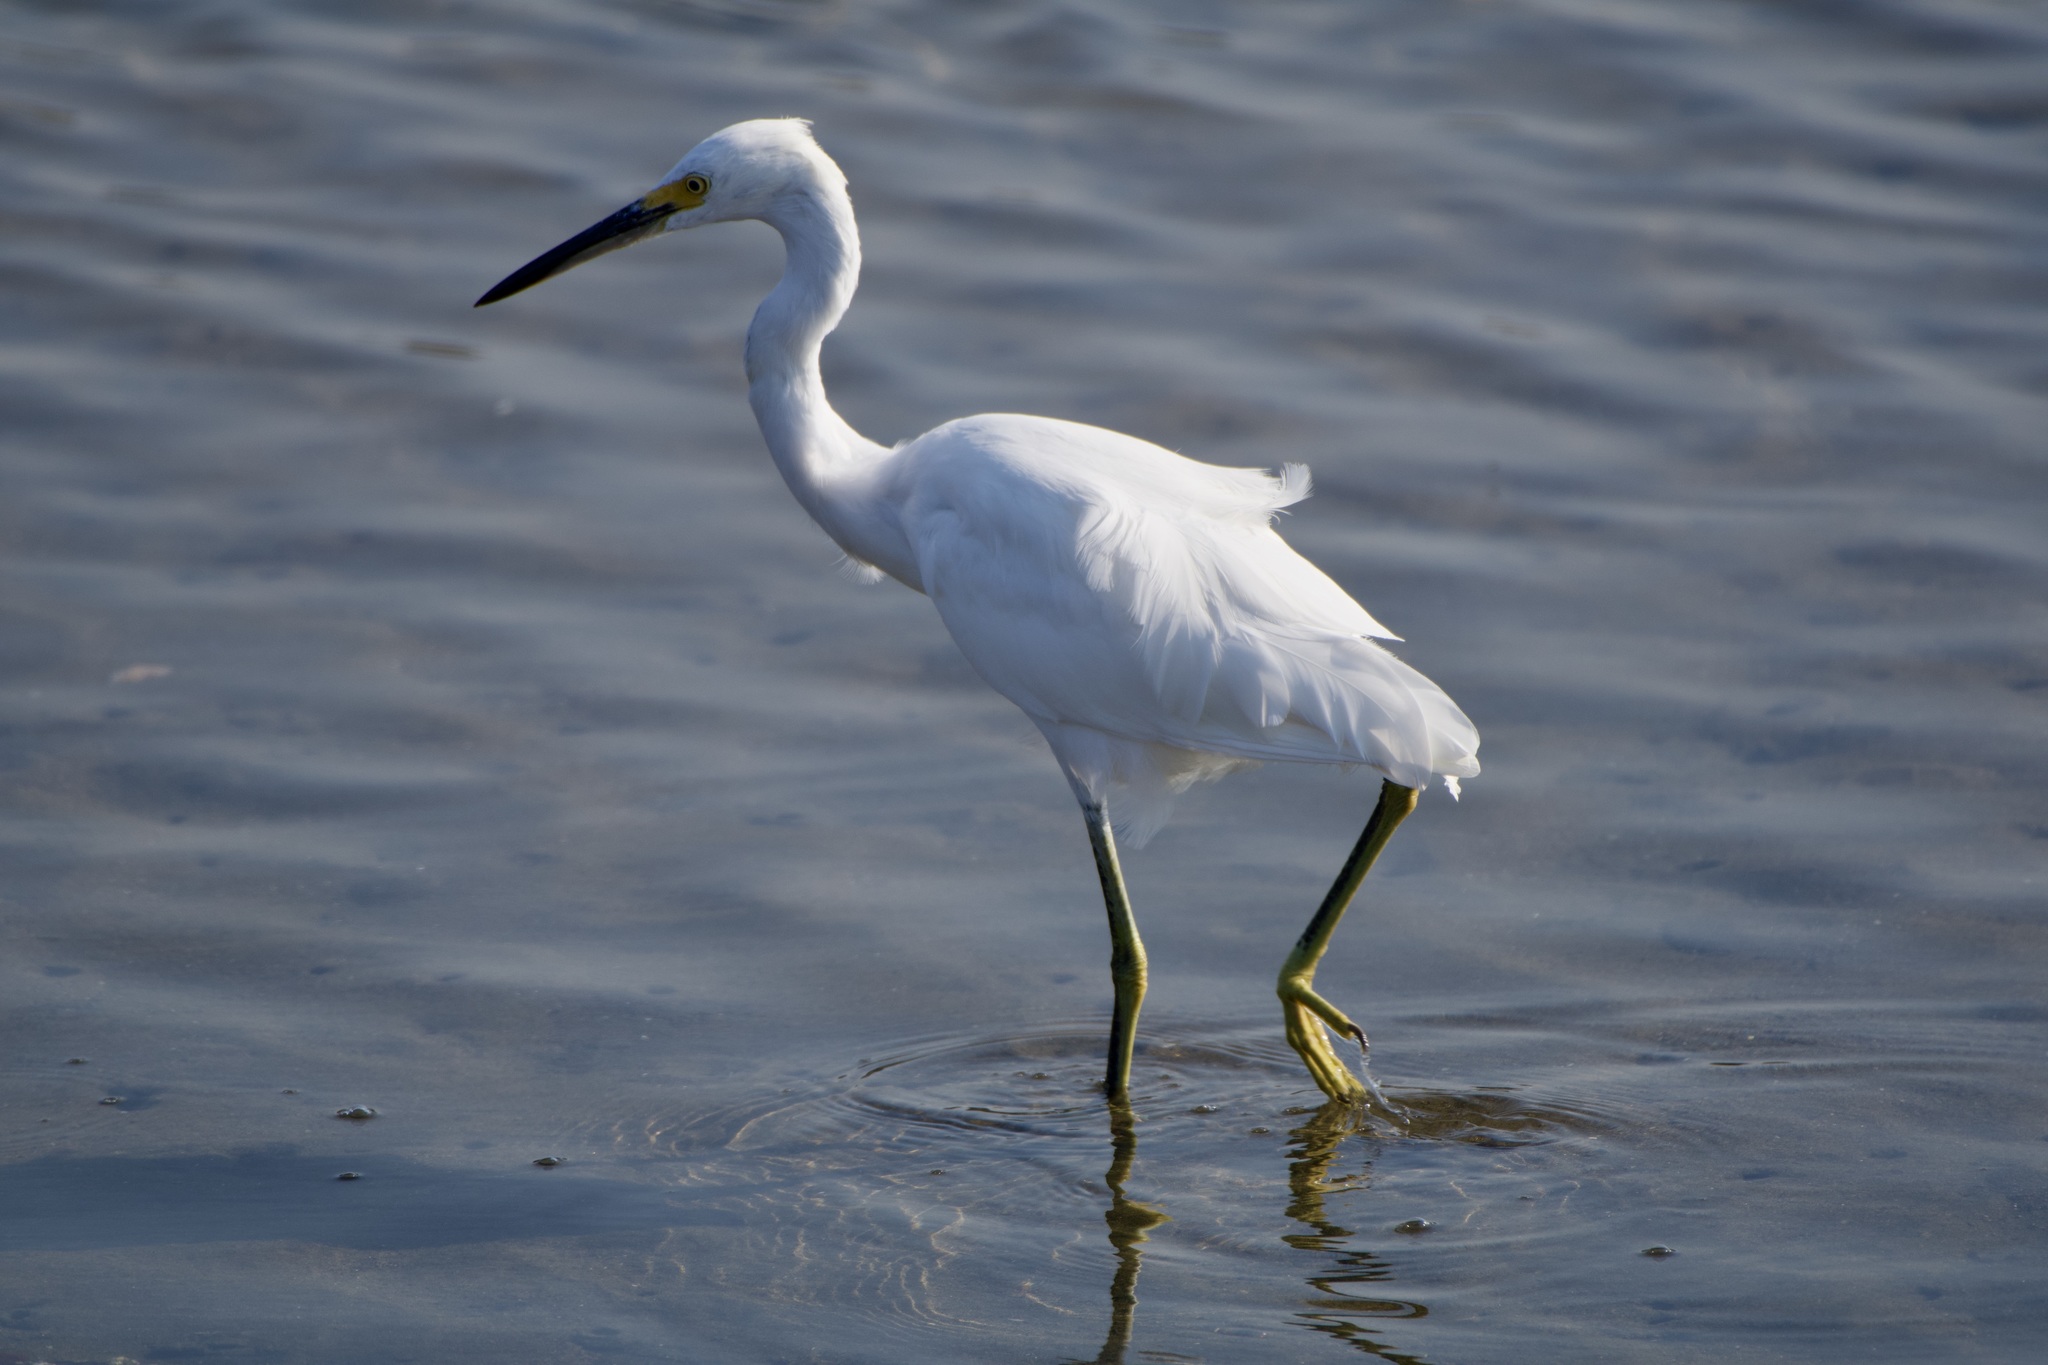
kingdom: Animalia
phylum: Chordata
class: Aves
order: Pelecaniformes
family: Ardeidae
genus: Egretta
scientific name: Egretta thula
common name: Snowy egret
